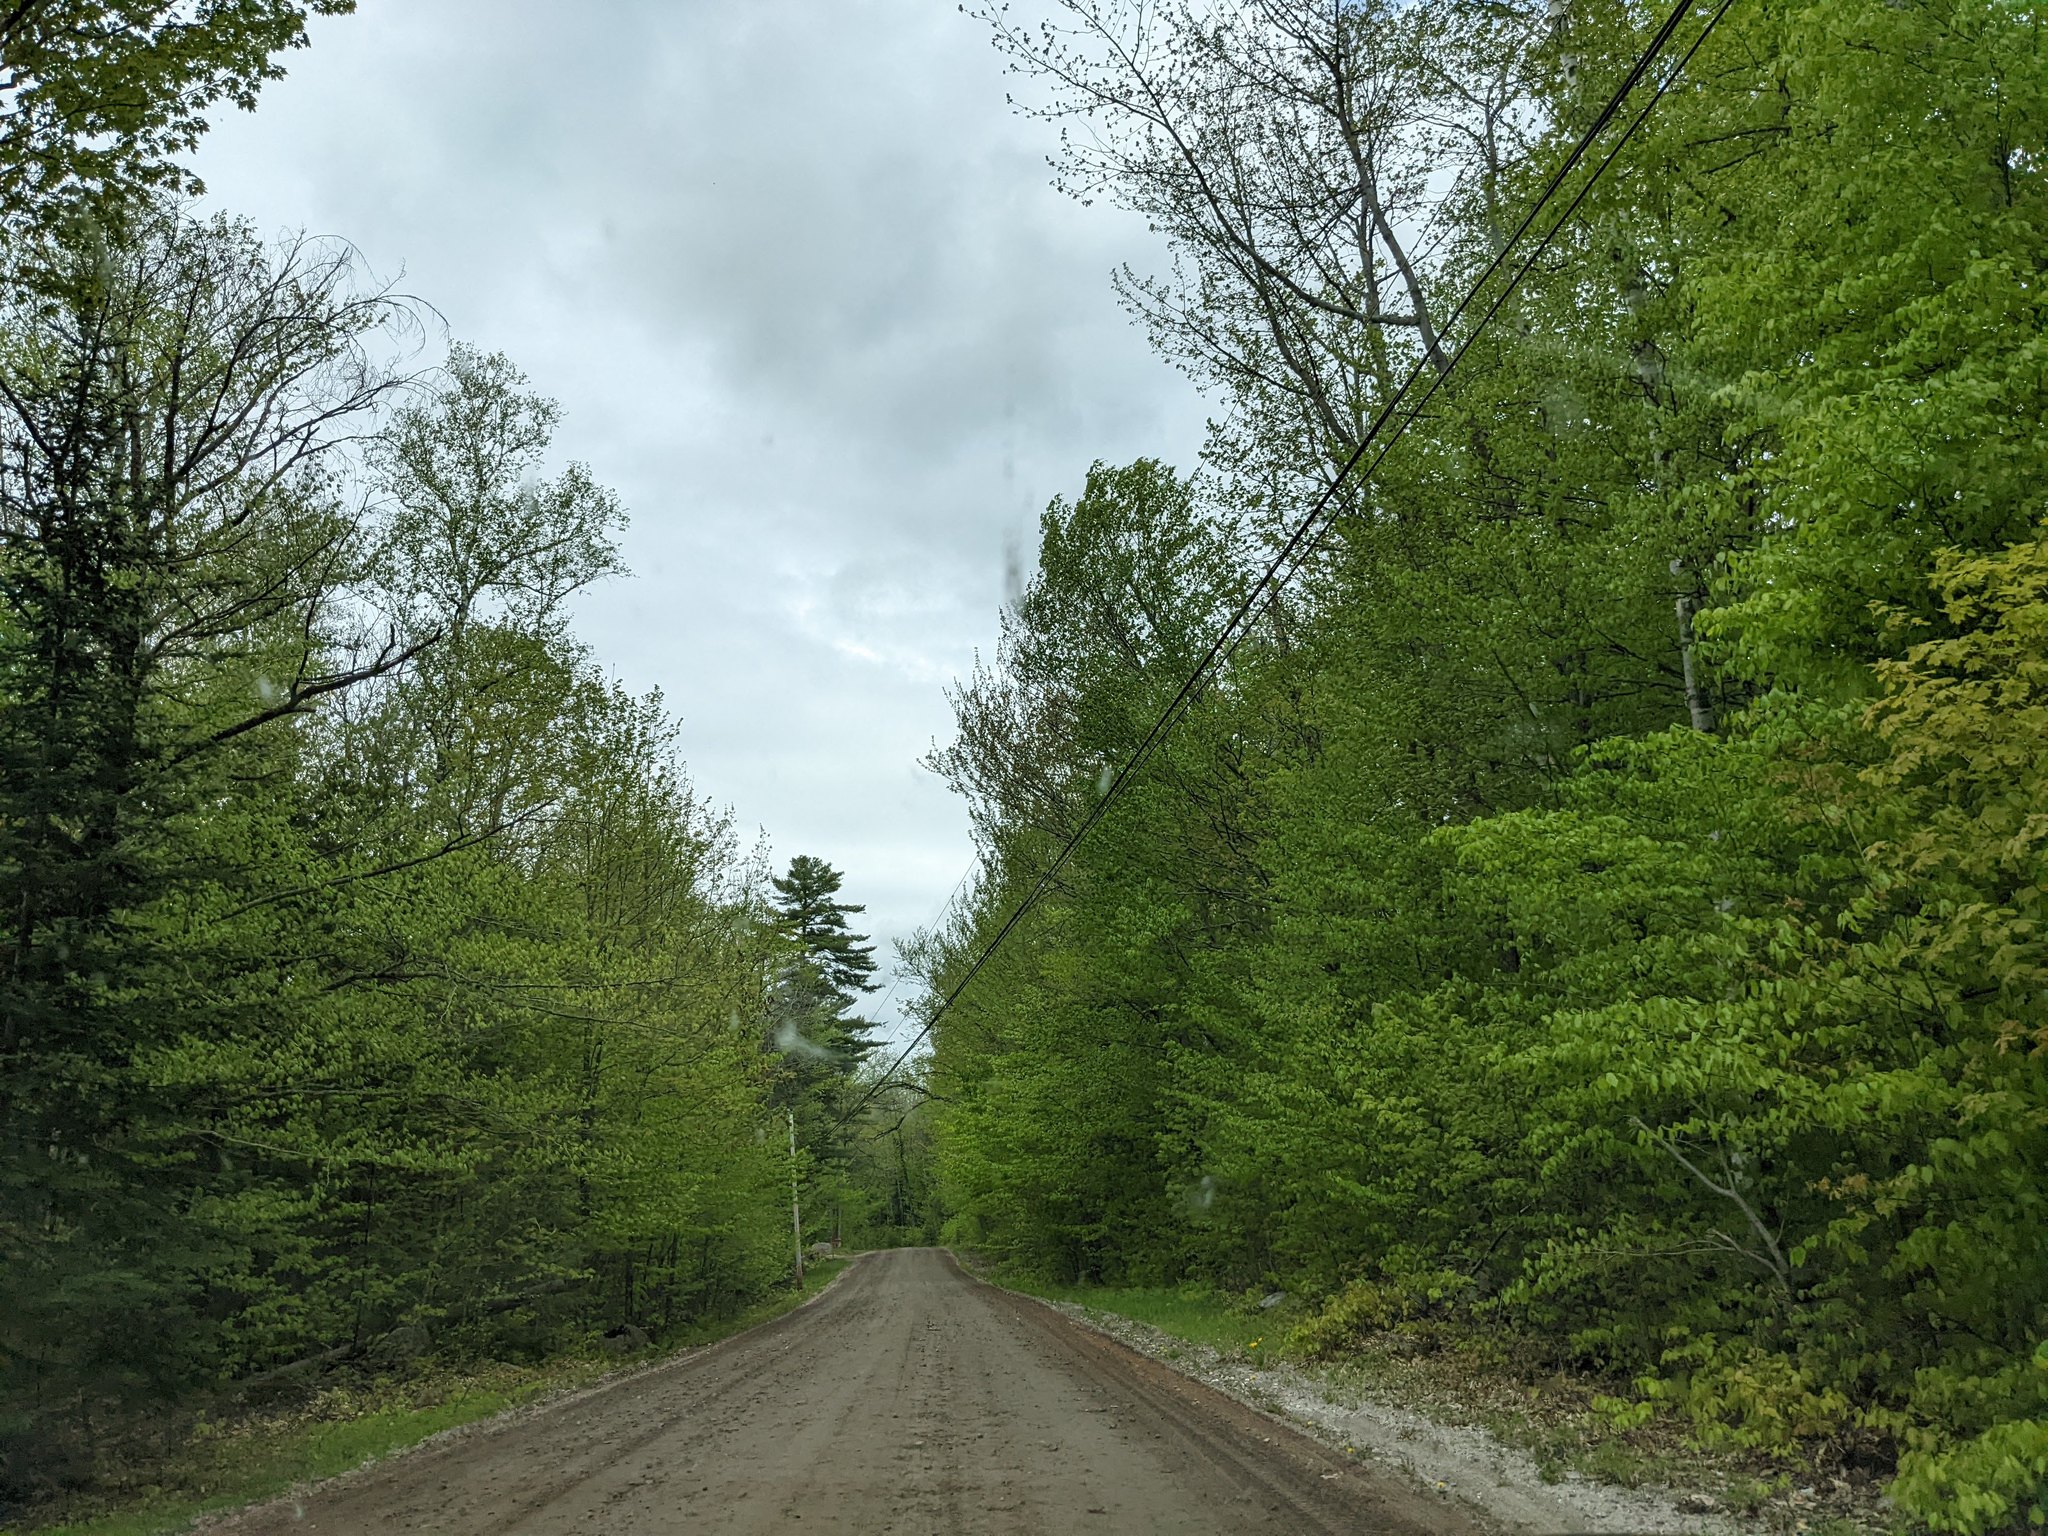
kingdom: Plantae
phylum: Tracheophyta
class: Pinopsida
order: Pinales
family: Pinaceae
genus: Pinus
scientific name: Pinus strobus
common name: Weymouth pine
